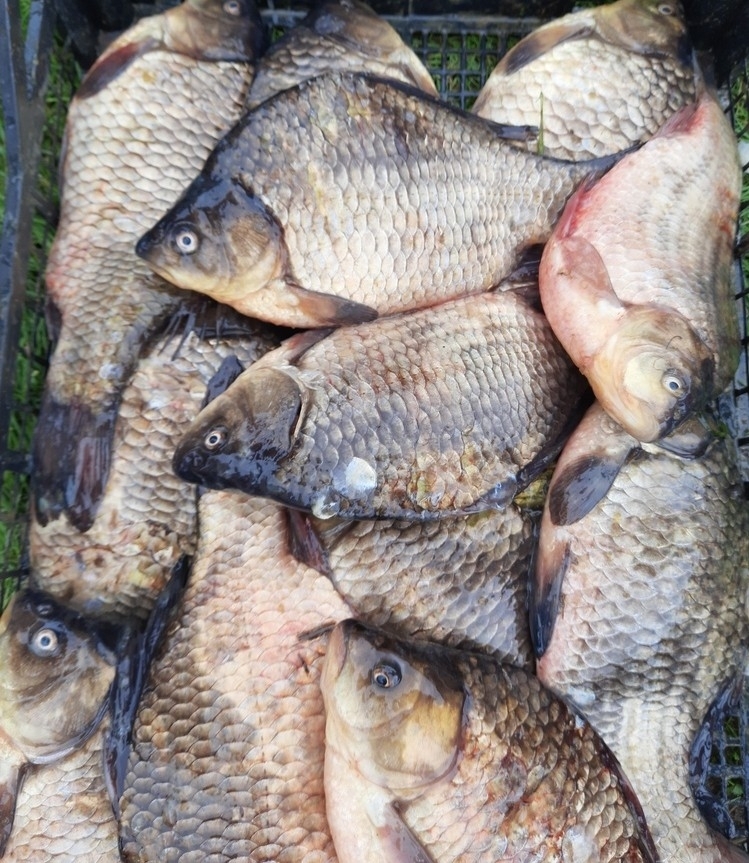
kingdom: Animalia
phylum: Chordata
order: Cypriniformes
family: Cyprinidae
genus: Carassius
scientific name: Carassius gibelio
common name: Prussian carp
